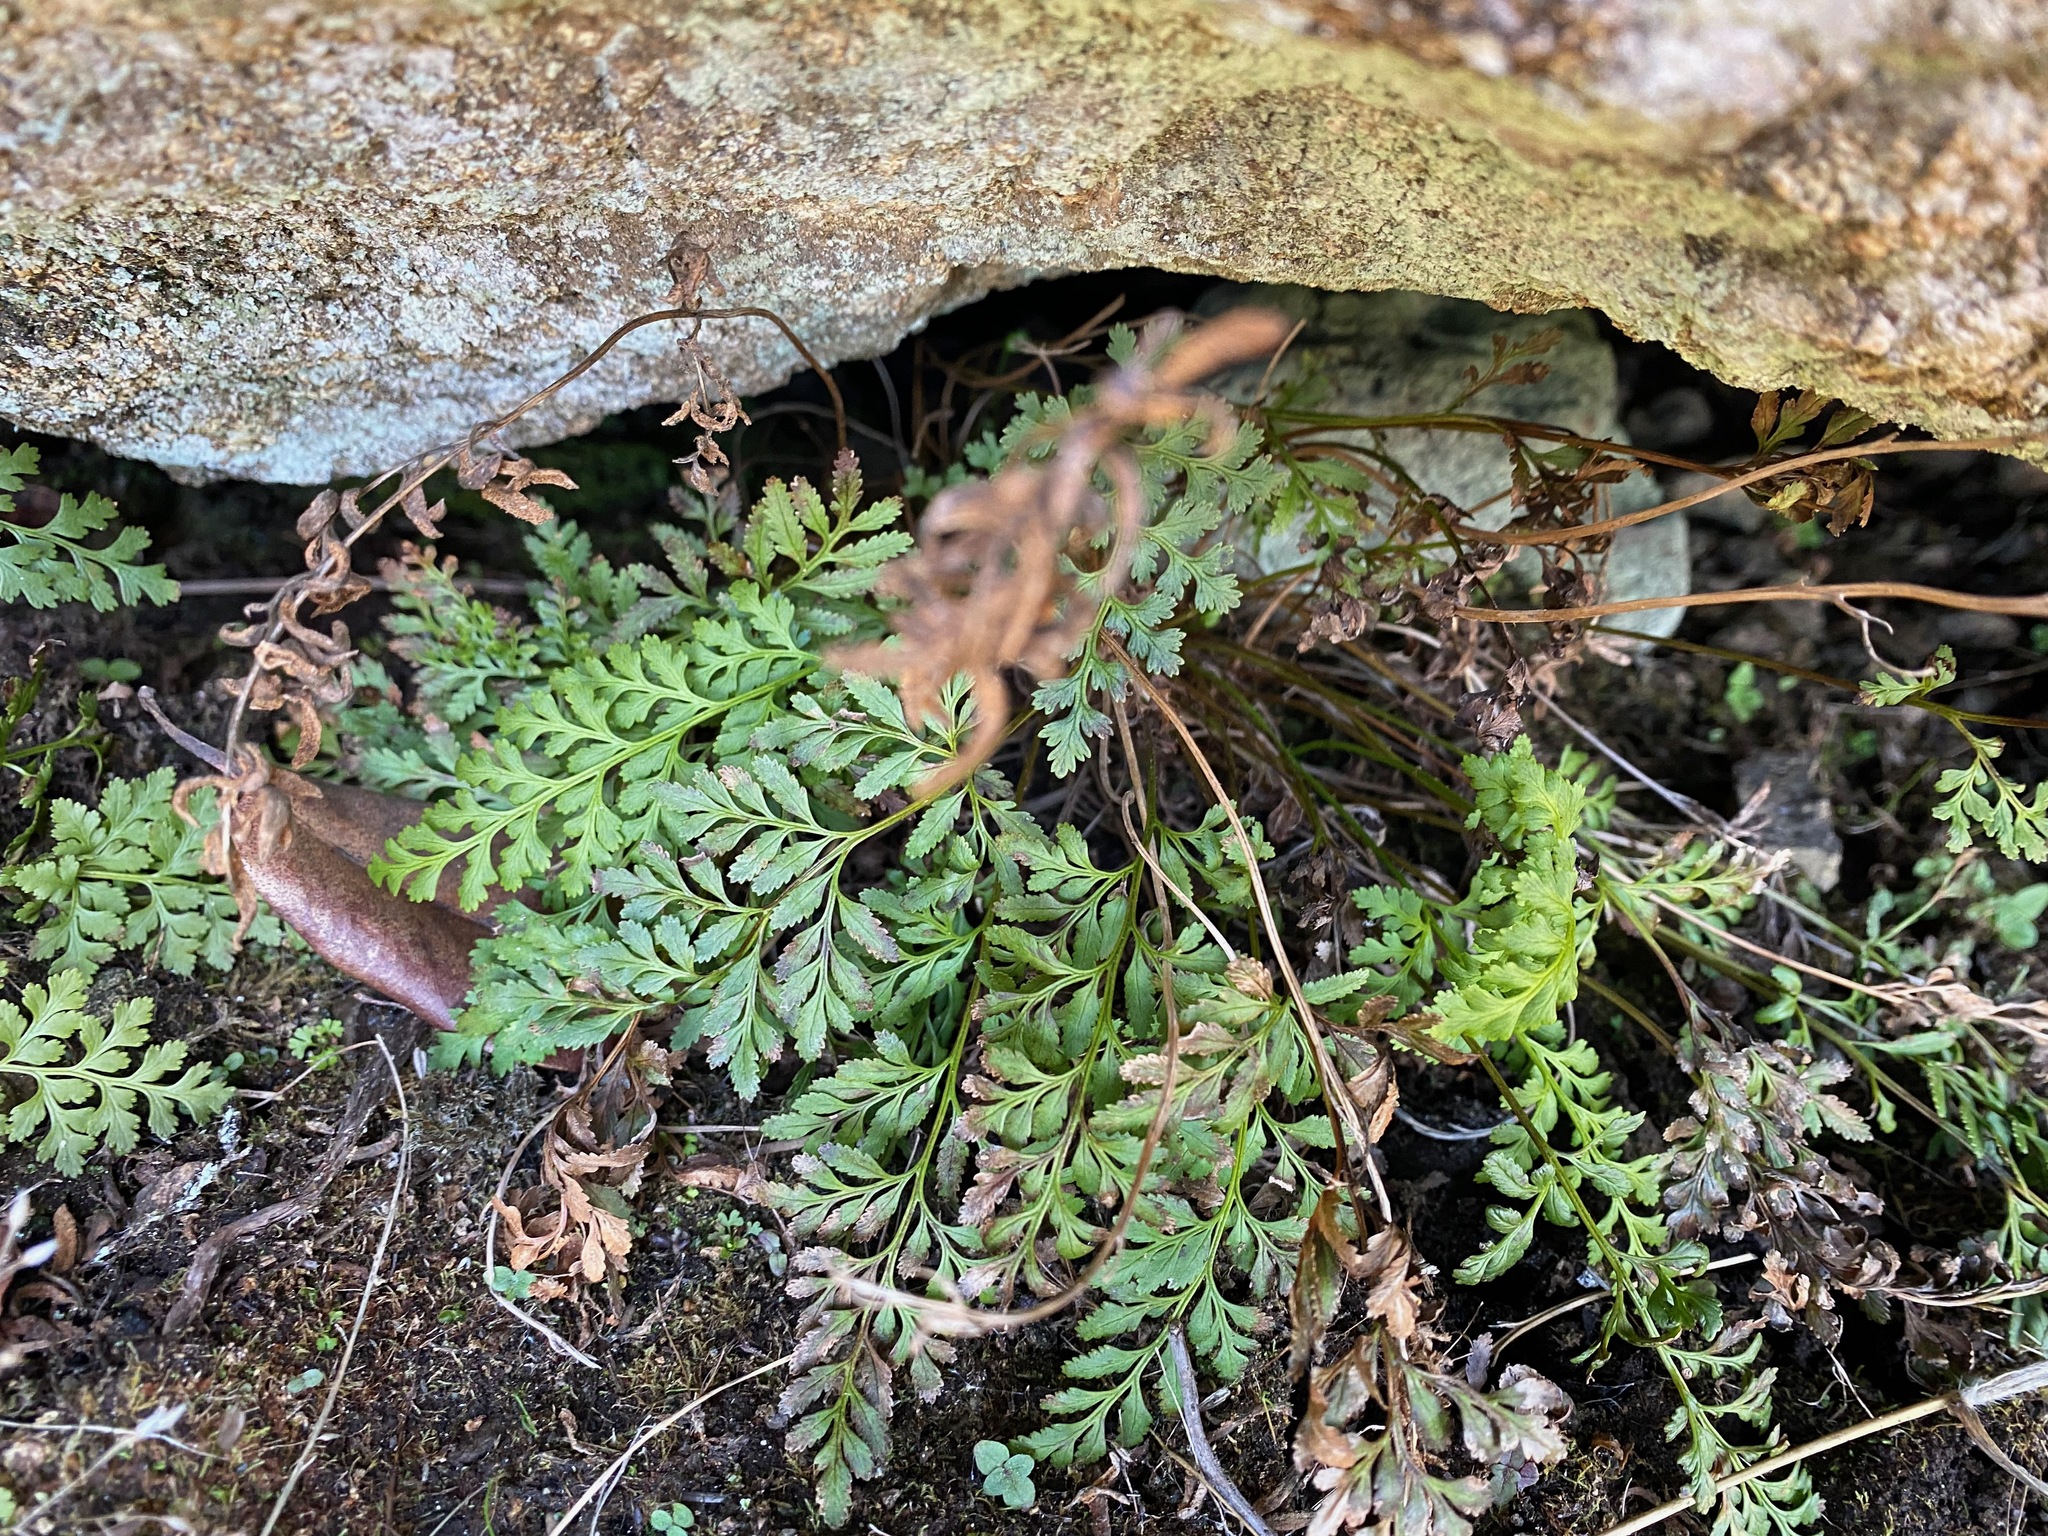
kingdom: Plantae
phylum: Tracheophyta
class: Polypodiopsida
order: Polypodiales
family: Pteridaceae
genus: Cryptogramma
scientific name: Cryptogramma acrostichoides
